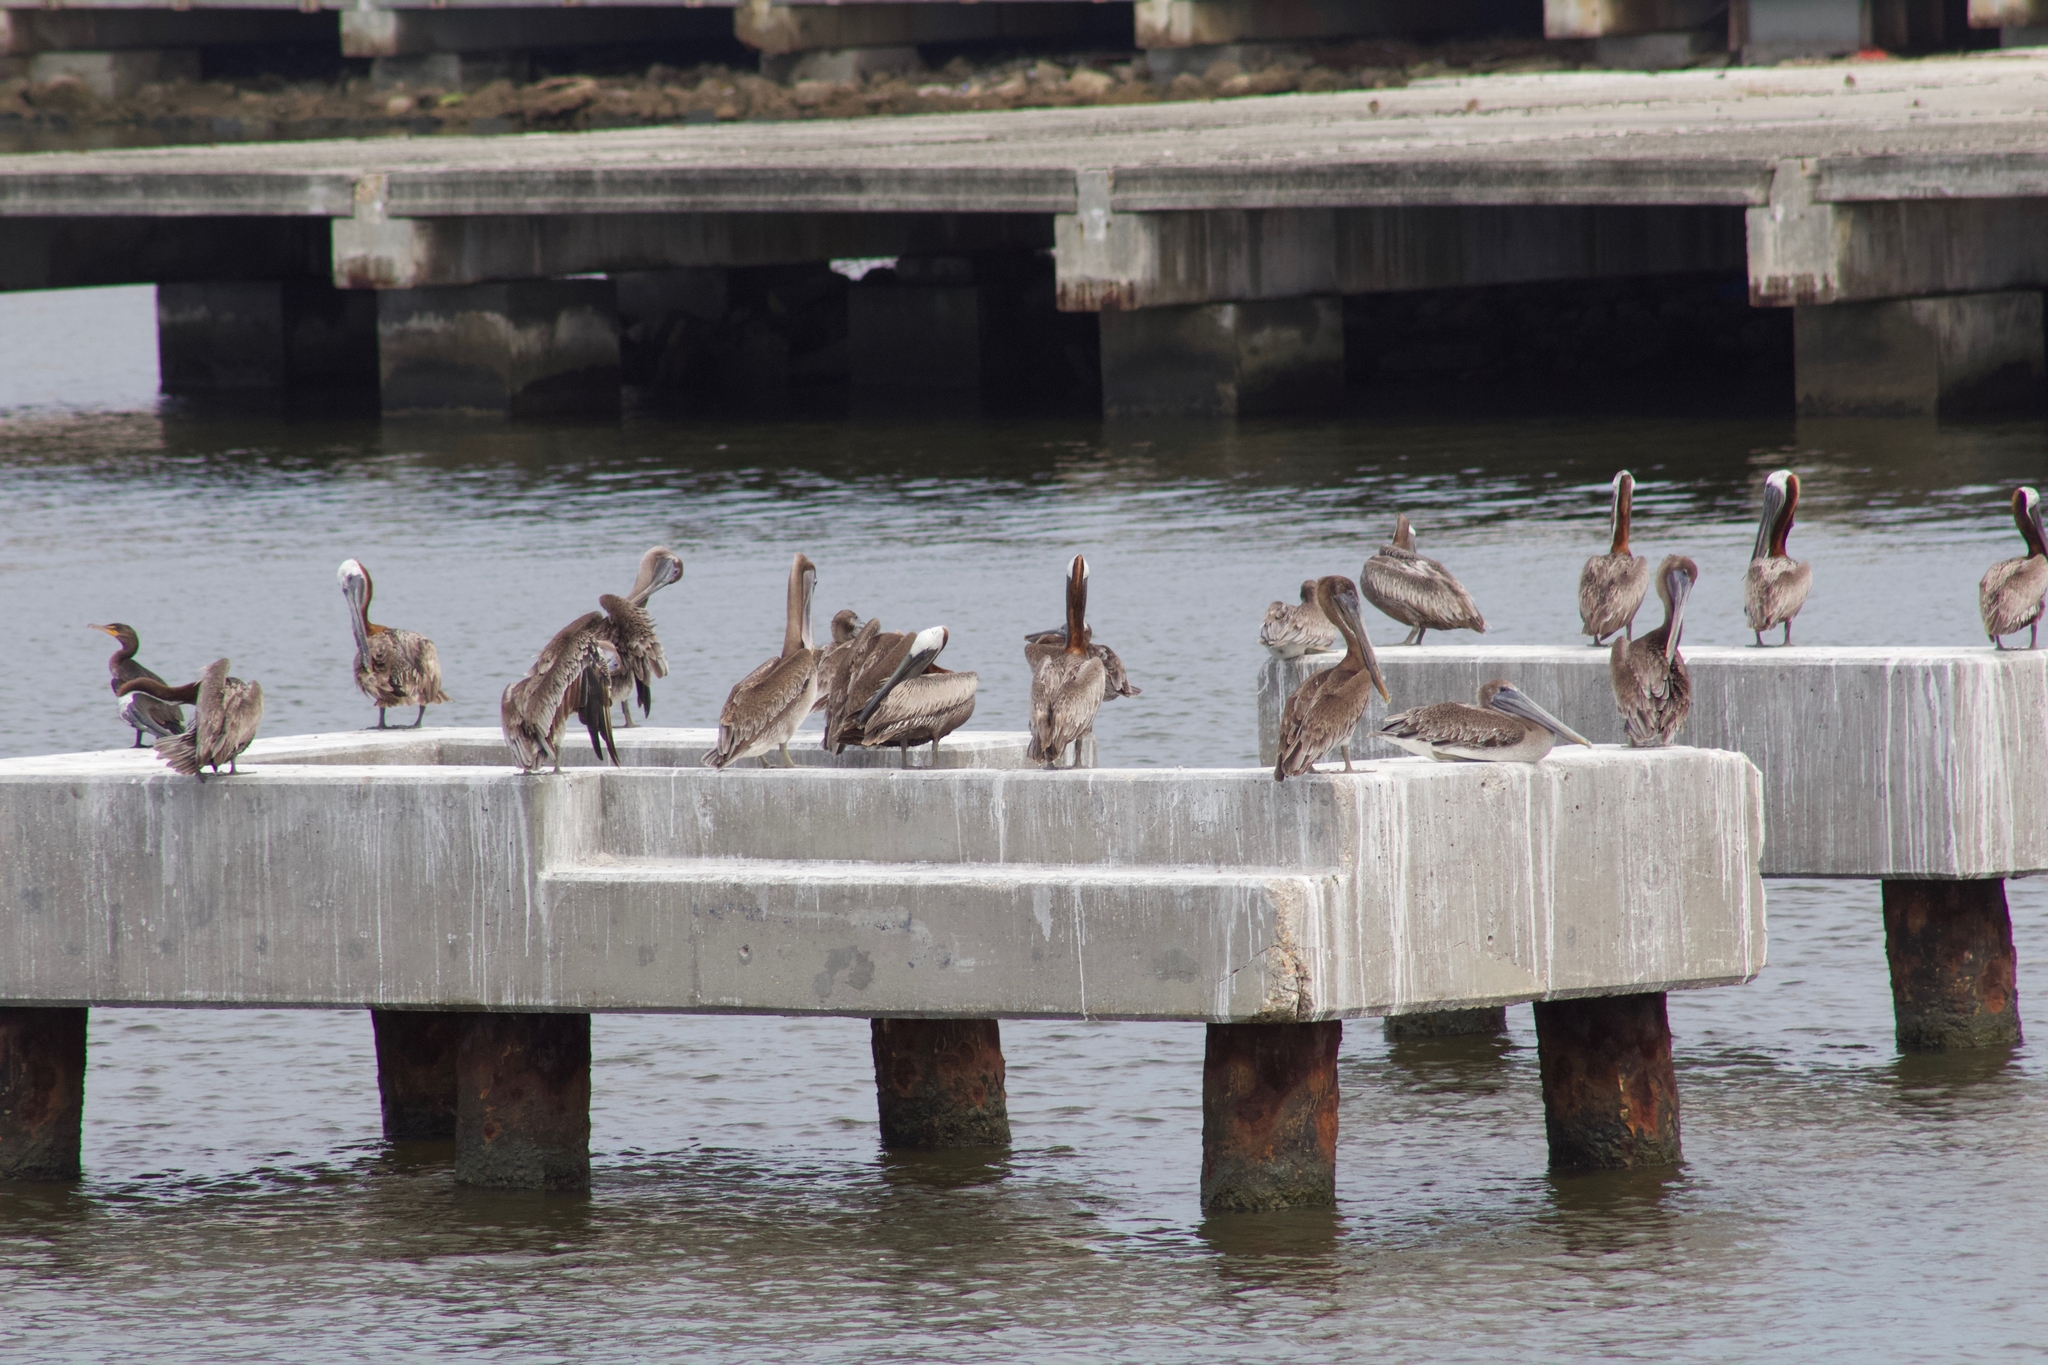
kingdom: Animalia
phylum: Chordata
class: Aves
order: Pelecaniformes
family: Pelecanidae
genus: Pelecanus
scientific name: Pelecanus occidentalis
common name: Brown pelican
